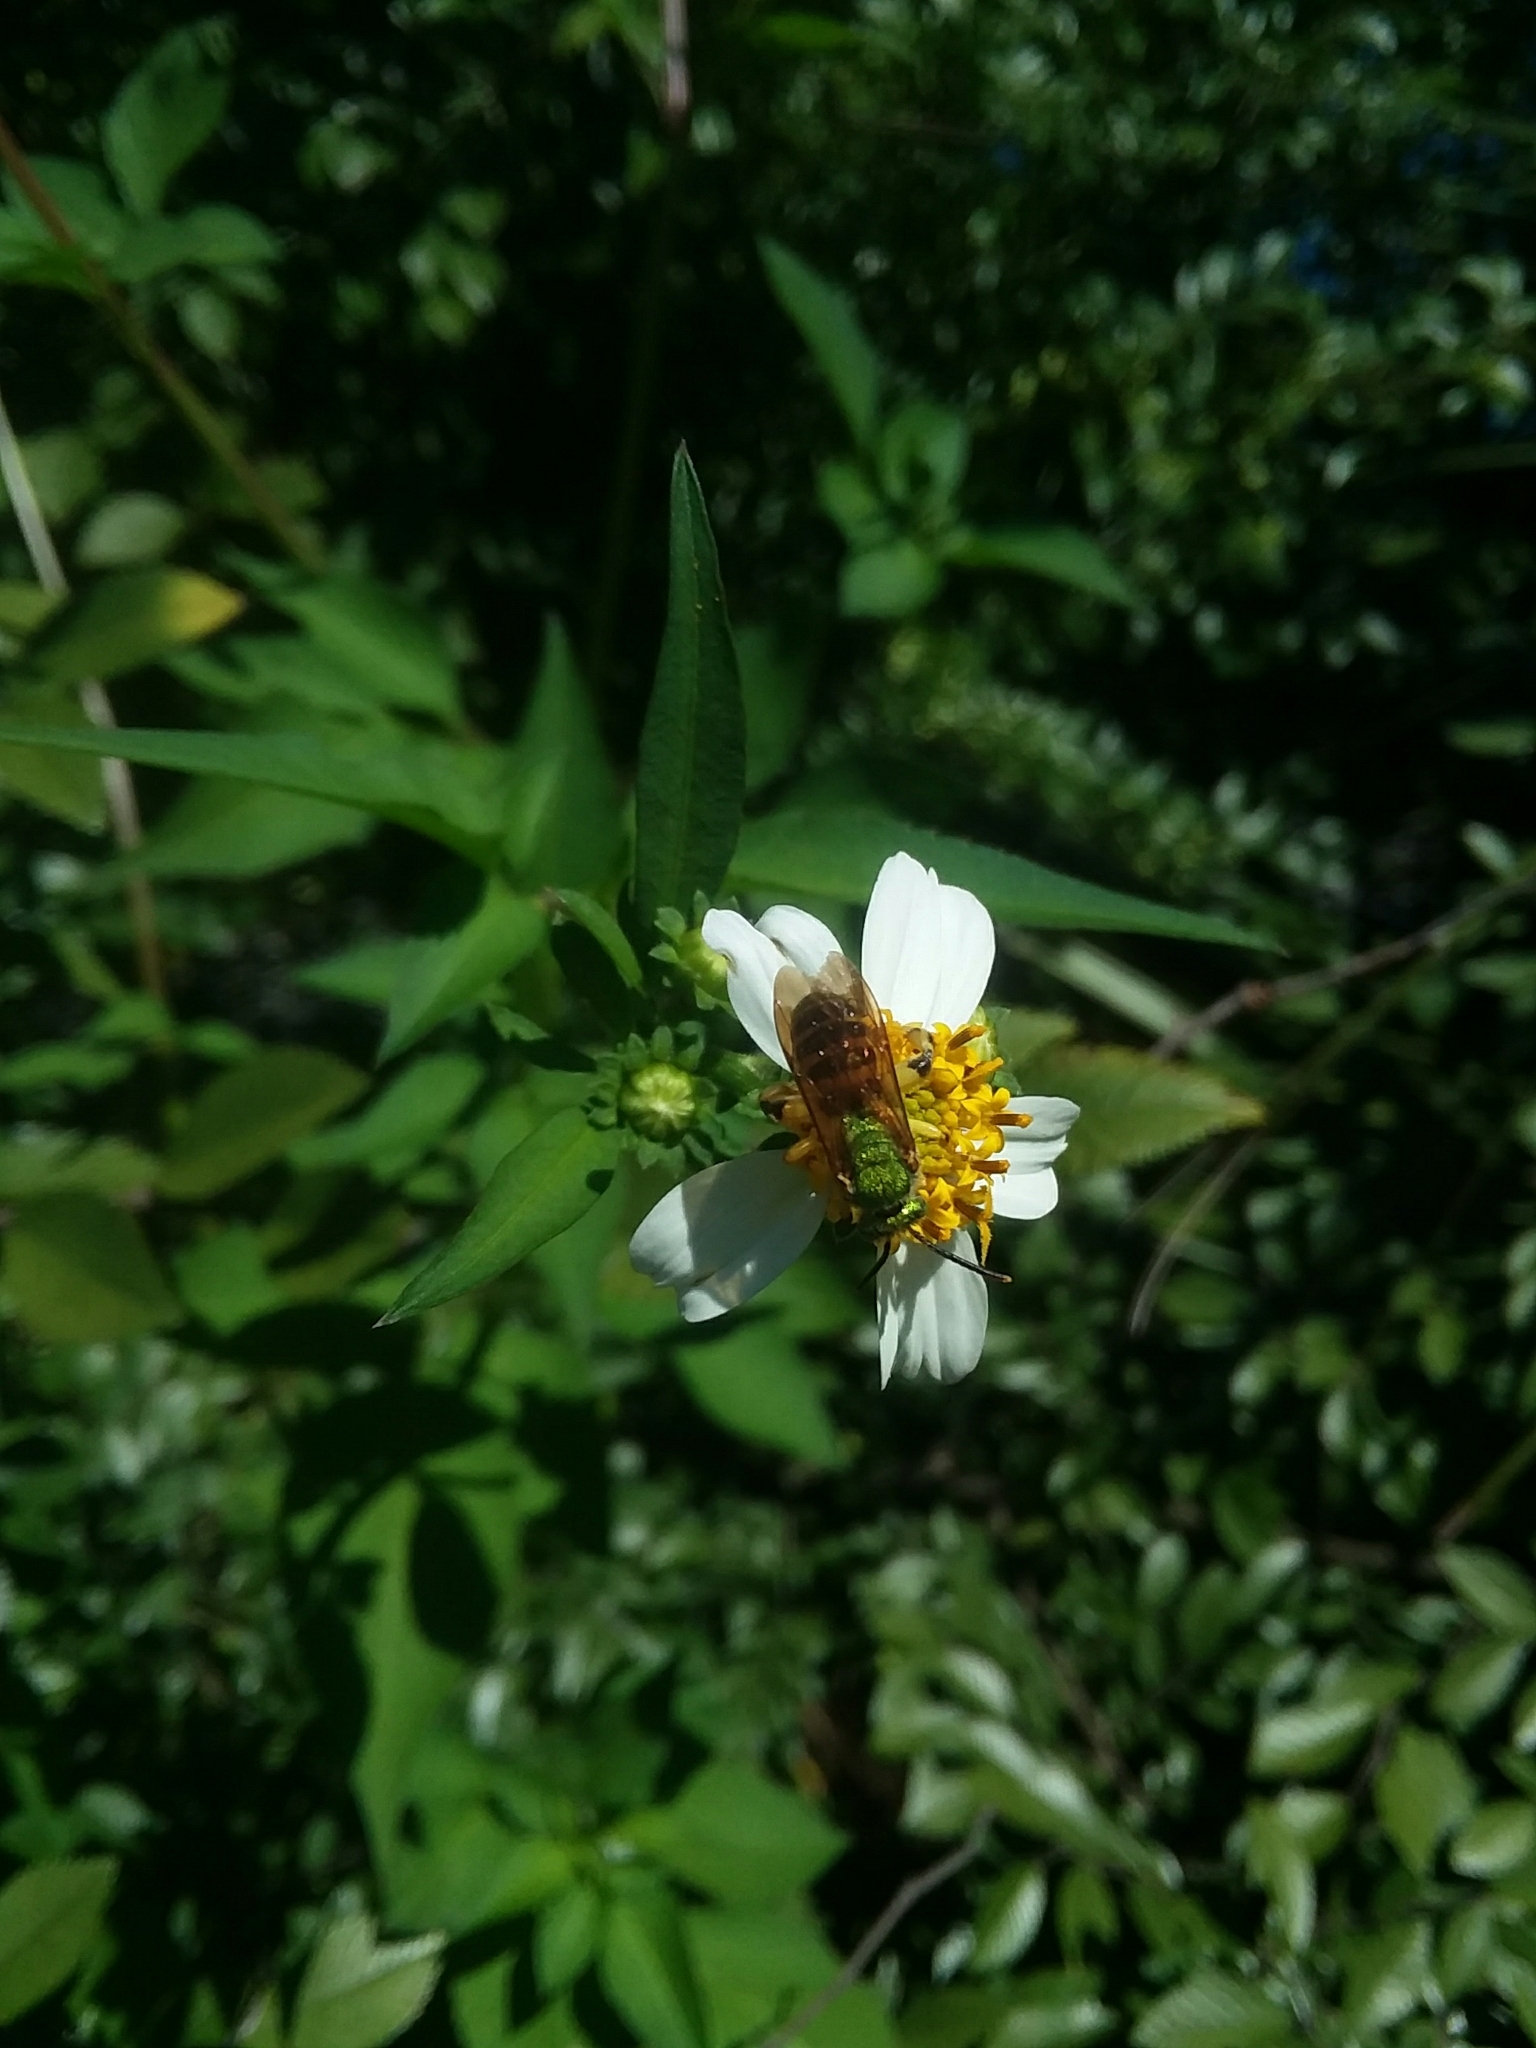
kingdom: Animalia
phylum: Arthropoda
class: Insecta
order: Hymenoptera
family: Halictidae
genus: Agapostemon
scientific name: Agapostemon splendens
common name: Brown-winged striped sweat bee
